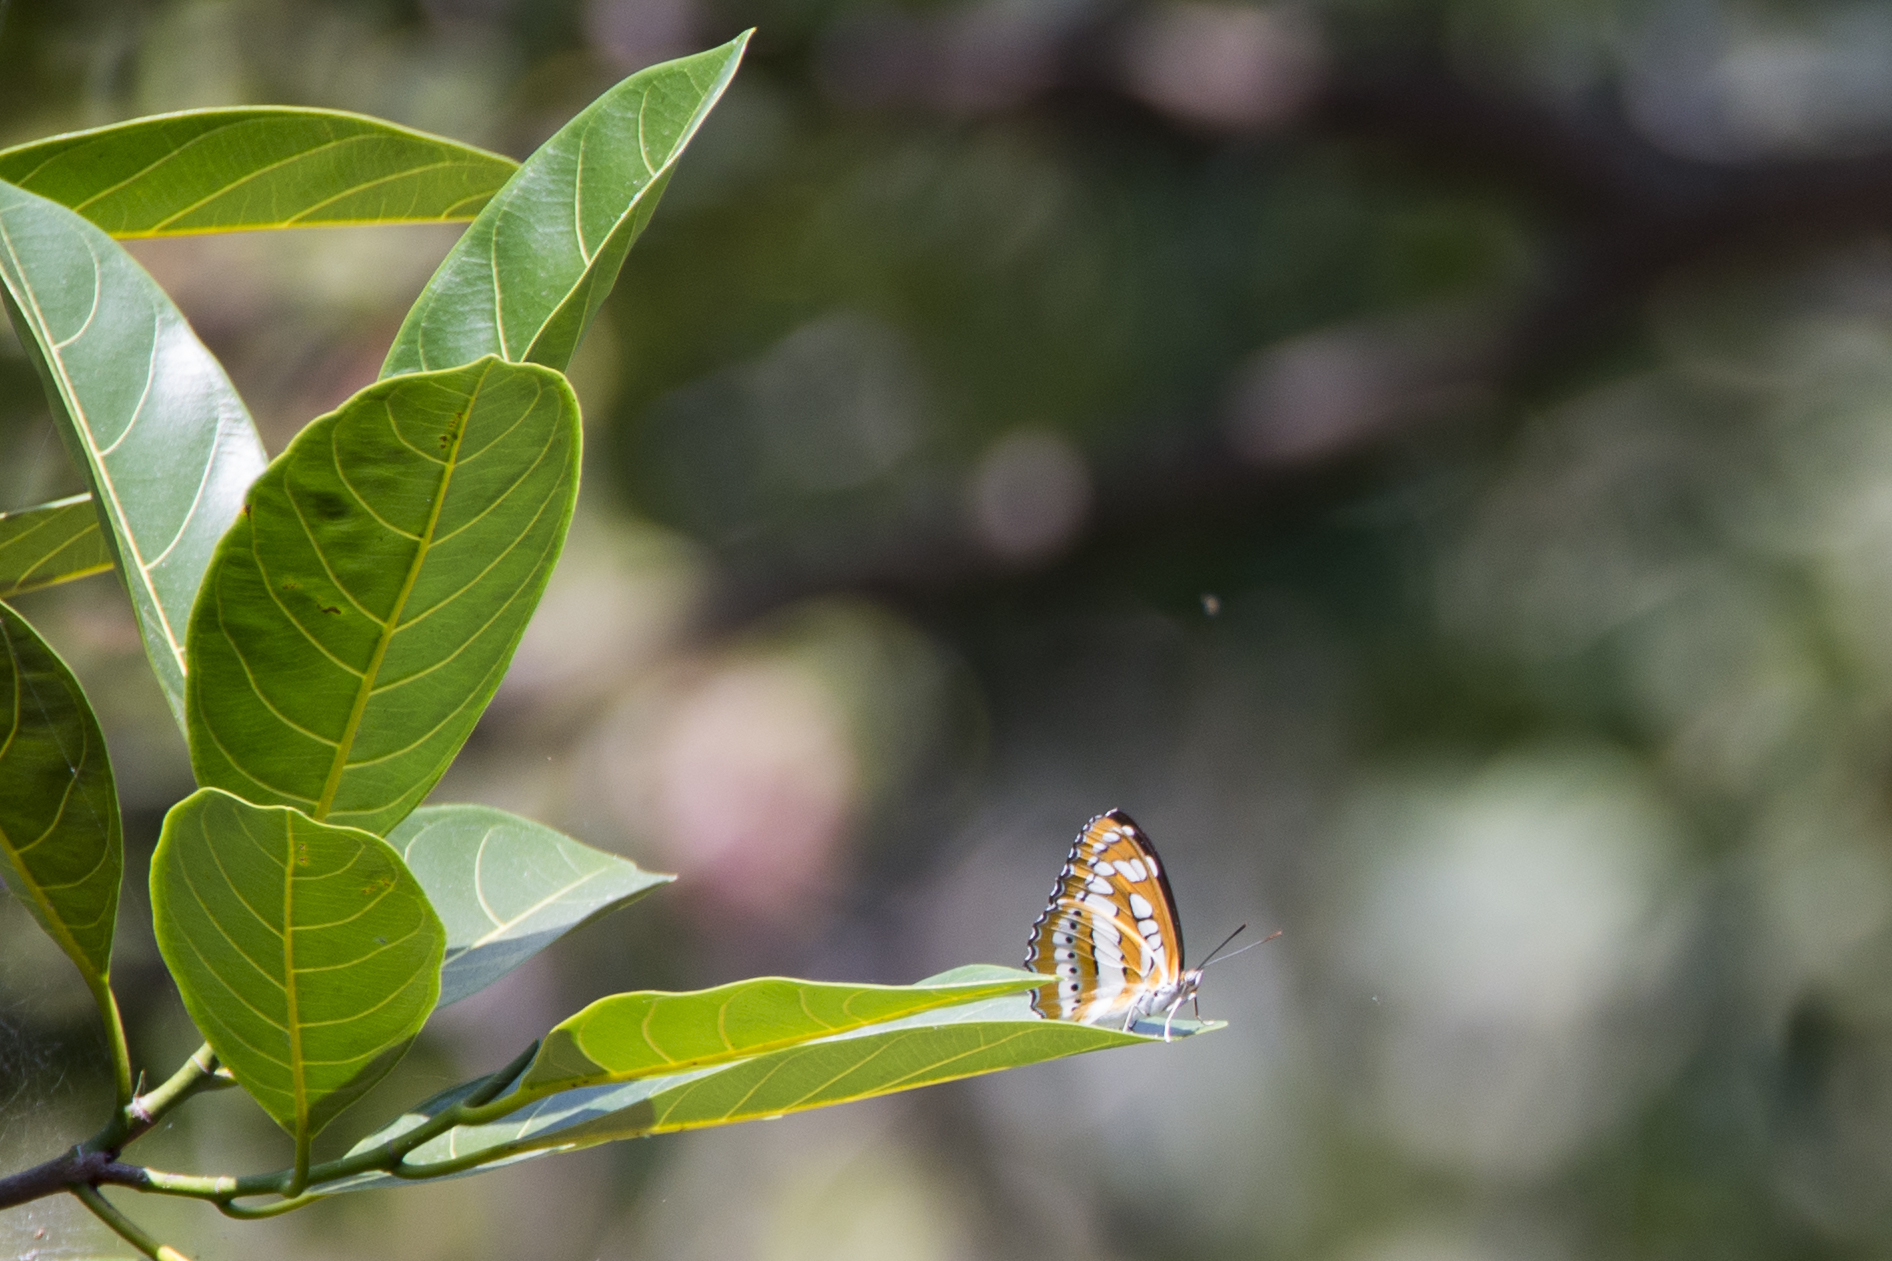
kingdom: Animalia
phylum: Arthropoda
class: Insecta
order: Lepidoptera
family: Nymphalidae
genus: Parathyma
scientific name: Parathyma perius
